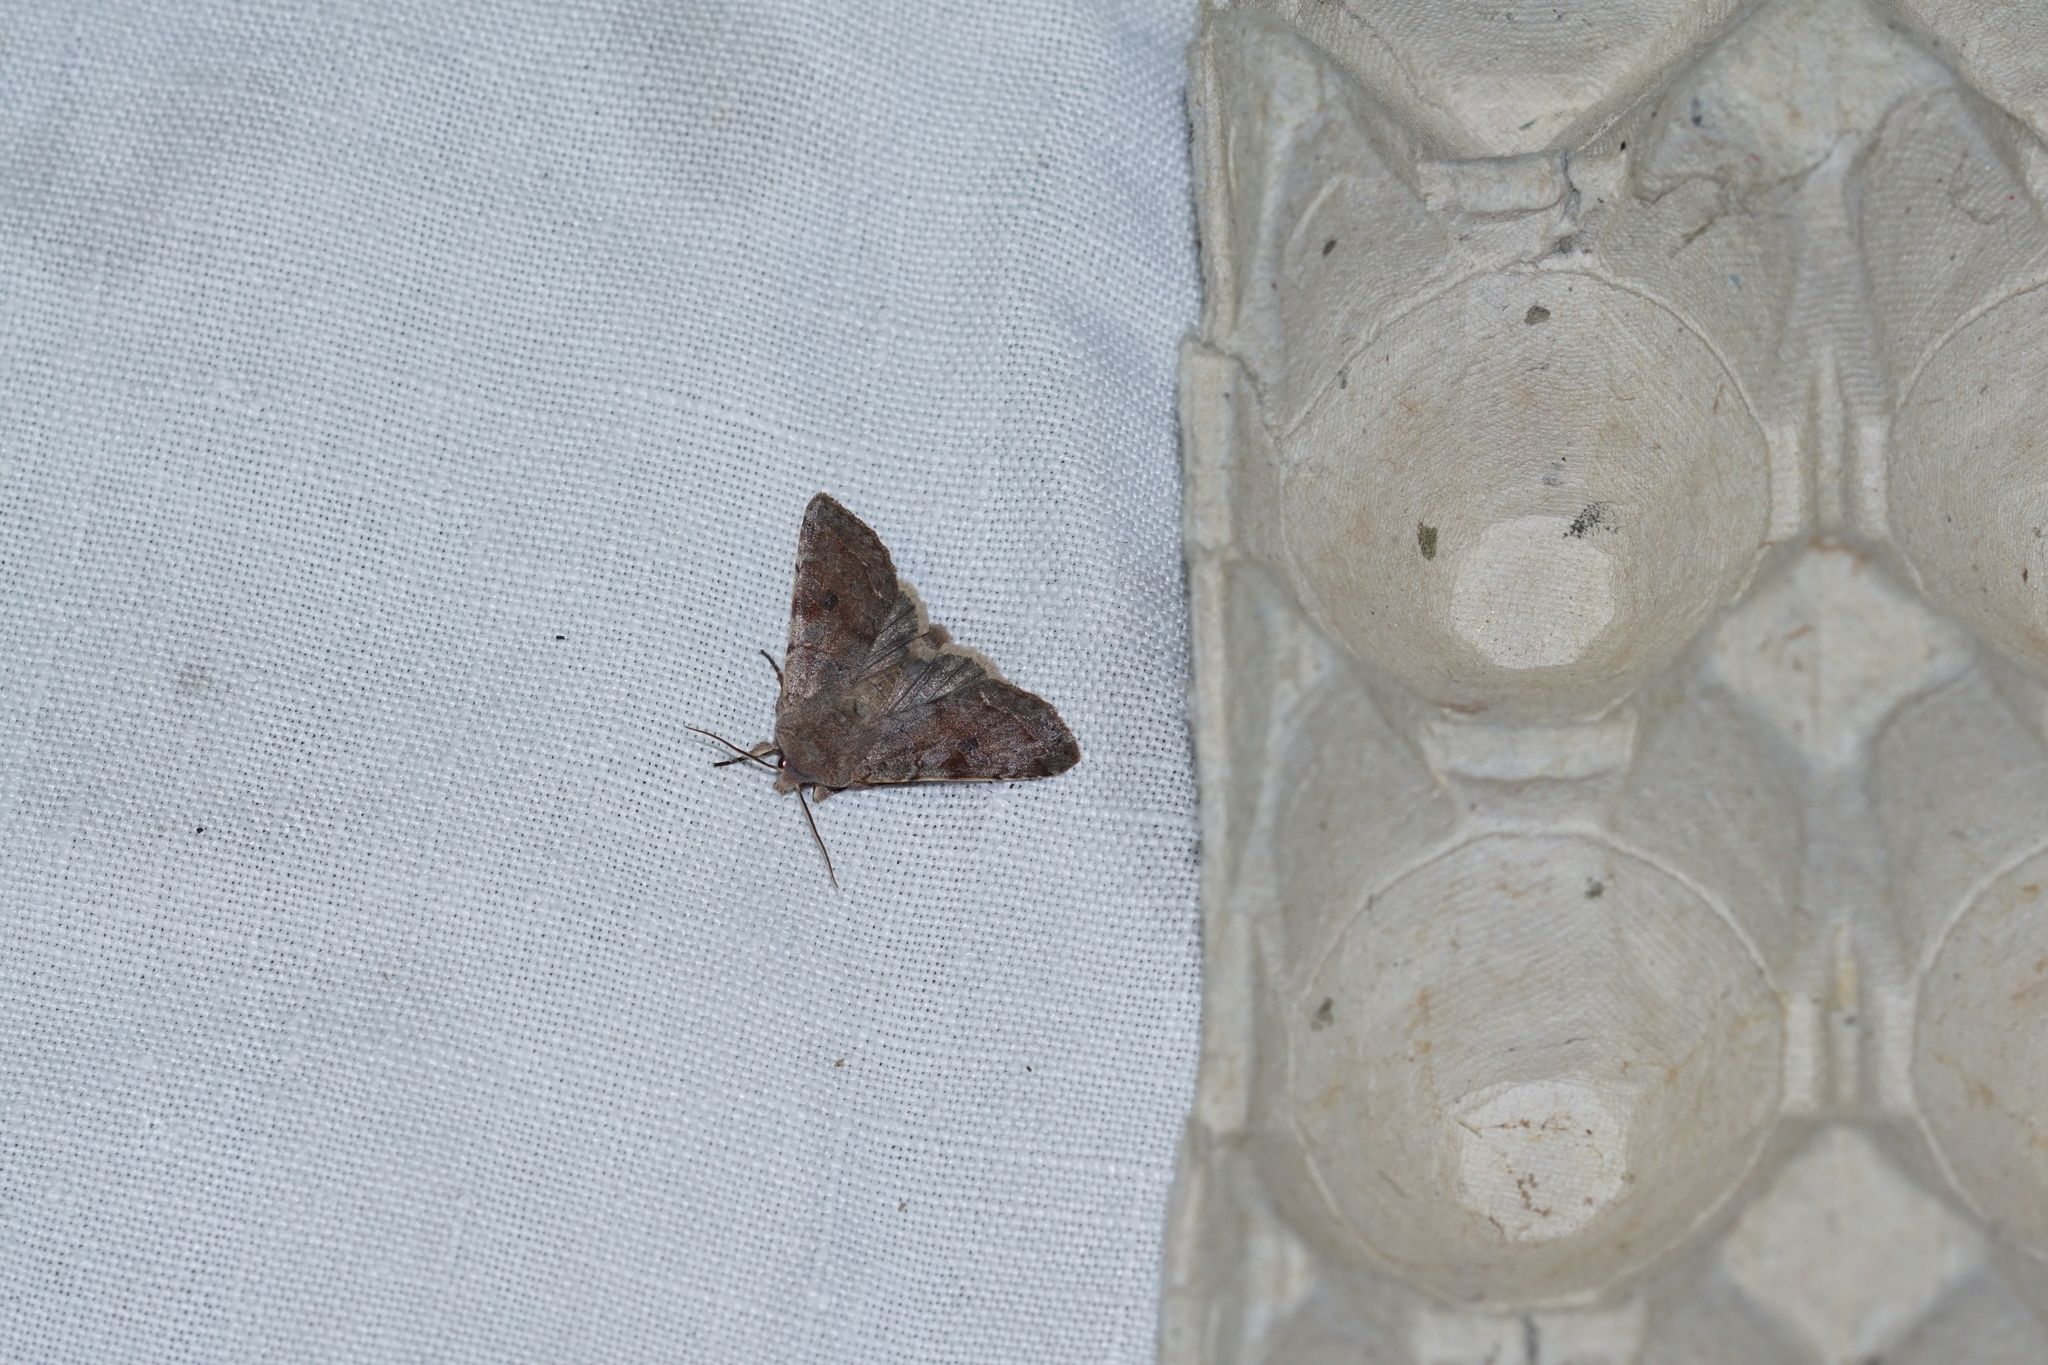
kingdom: Animalia
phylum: Arthropoda
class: Insecta
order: Lepidoptera
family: Noctuidae
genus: Orthosia
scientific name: Orthosia incerta
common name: Clouded drab
